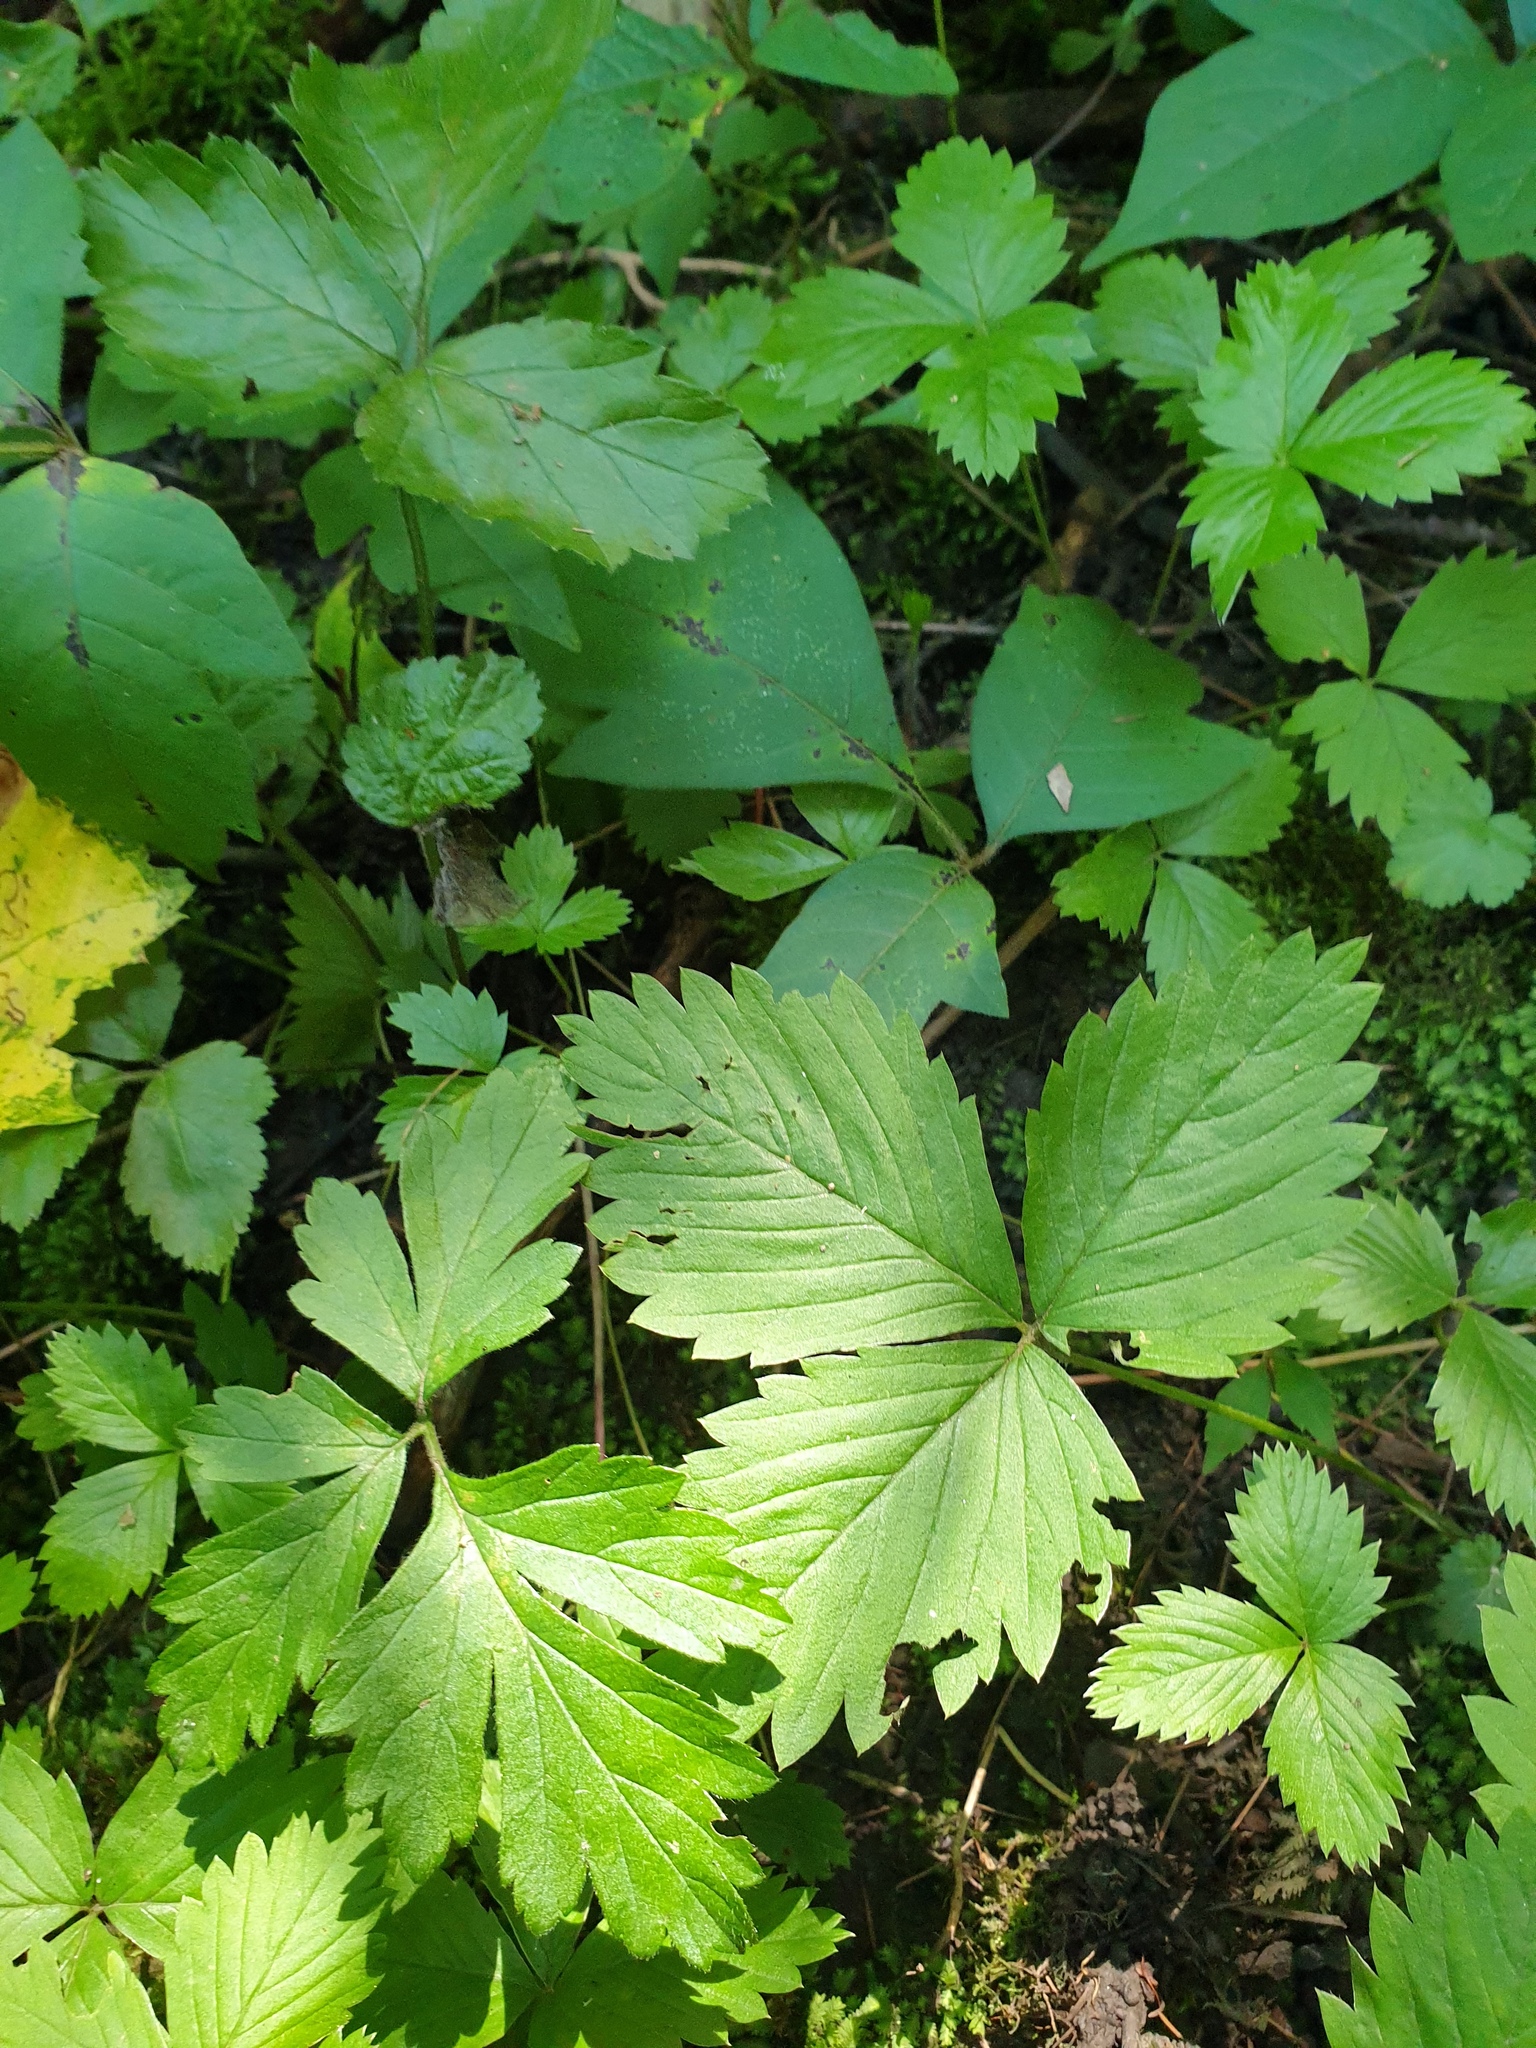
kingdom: Plantae
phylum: Tracheophyta
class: Magnoliopsida
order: Rosales
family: Rosaceae
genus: Fragaria
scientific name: Fragaria vesca
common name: Wild strawberry
